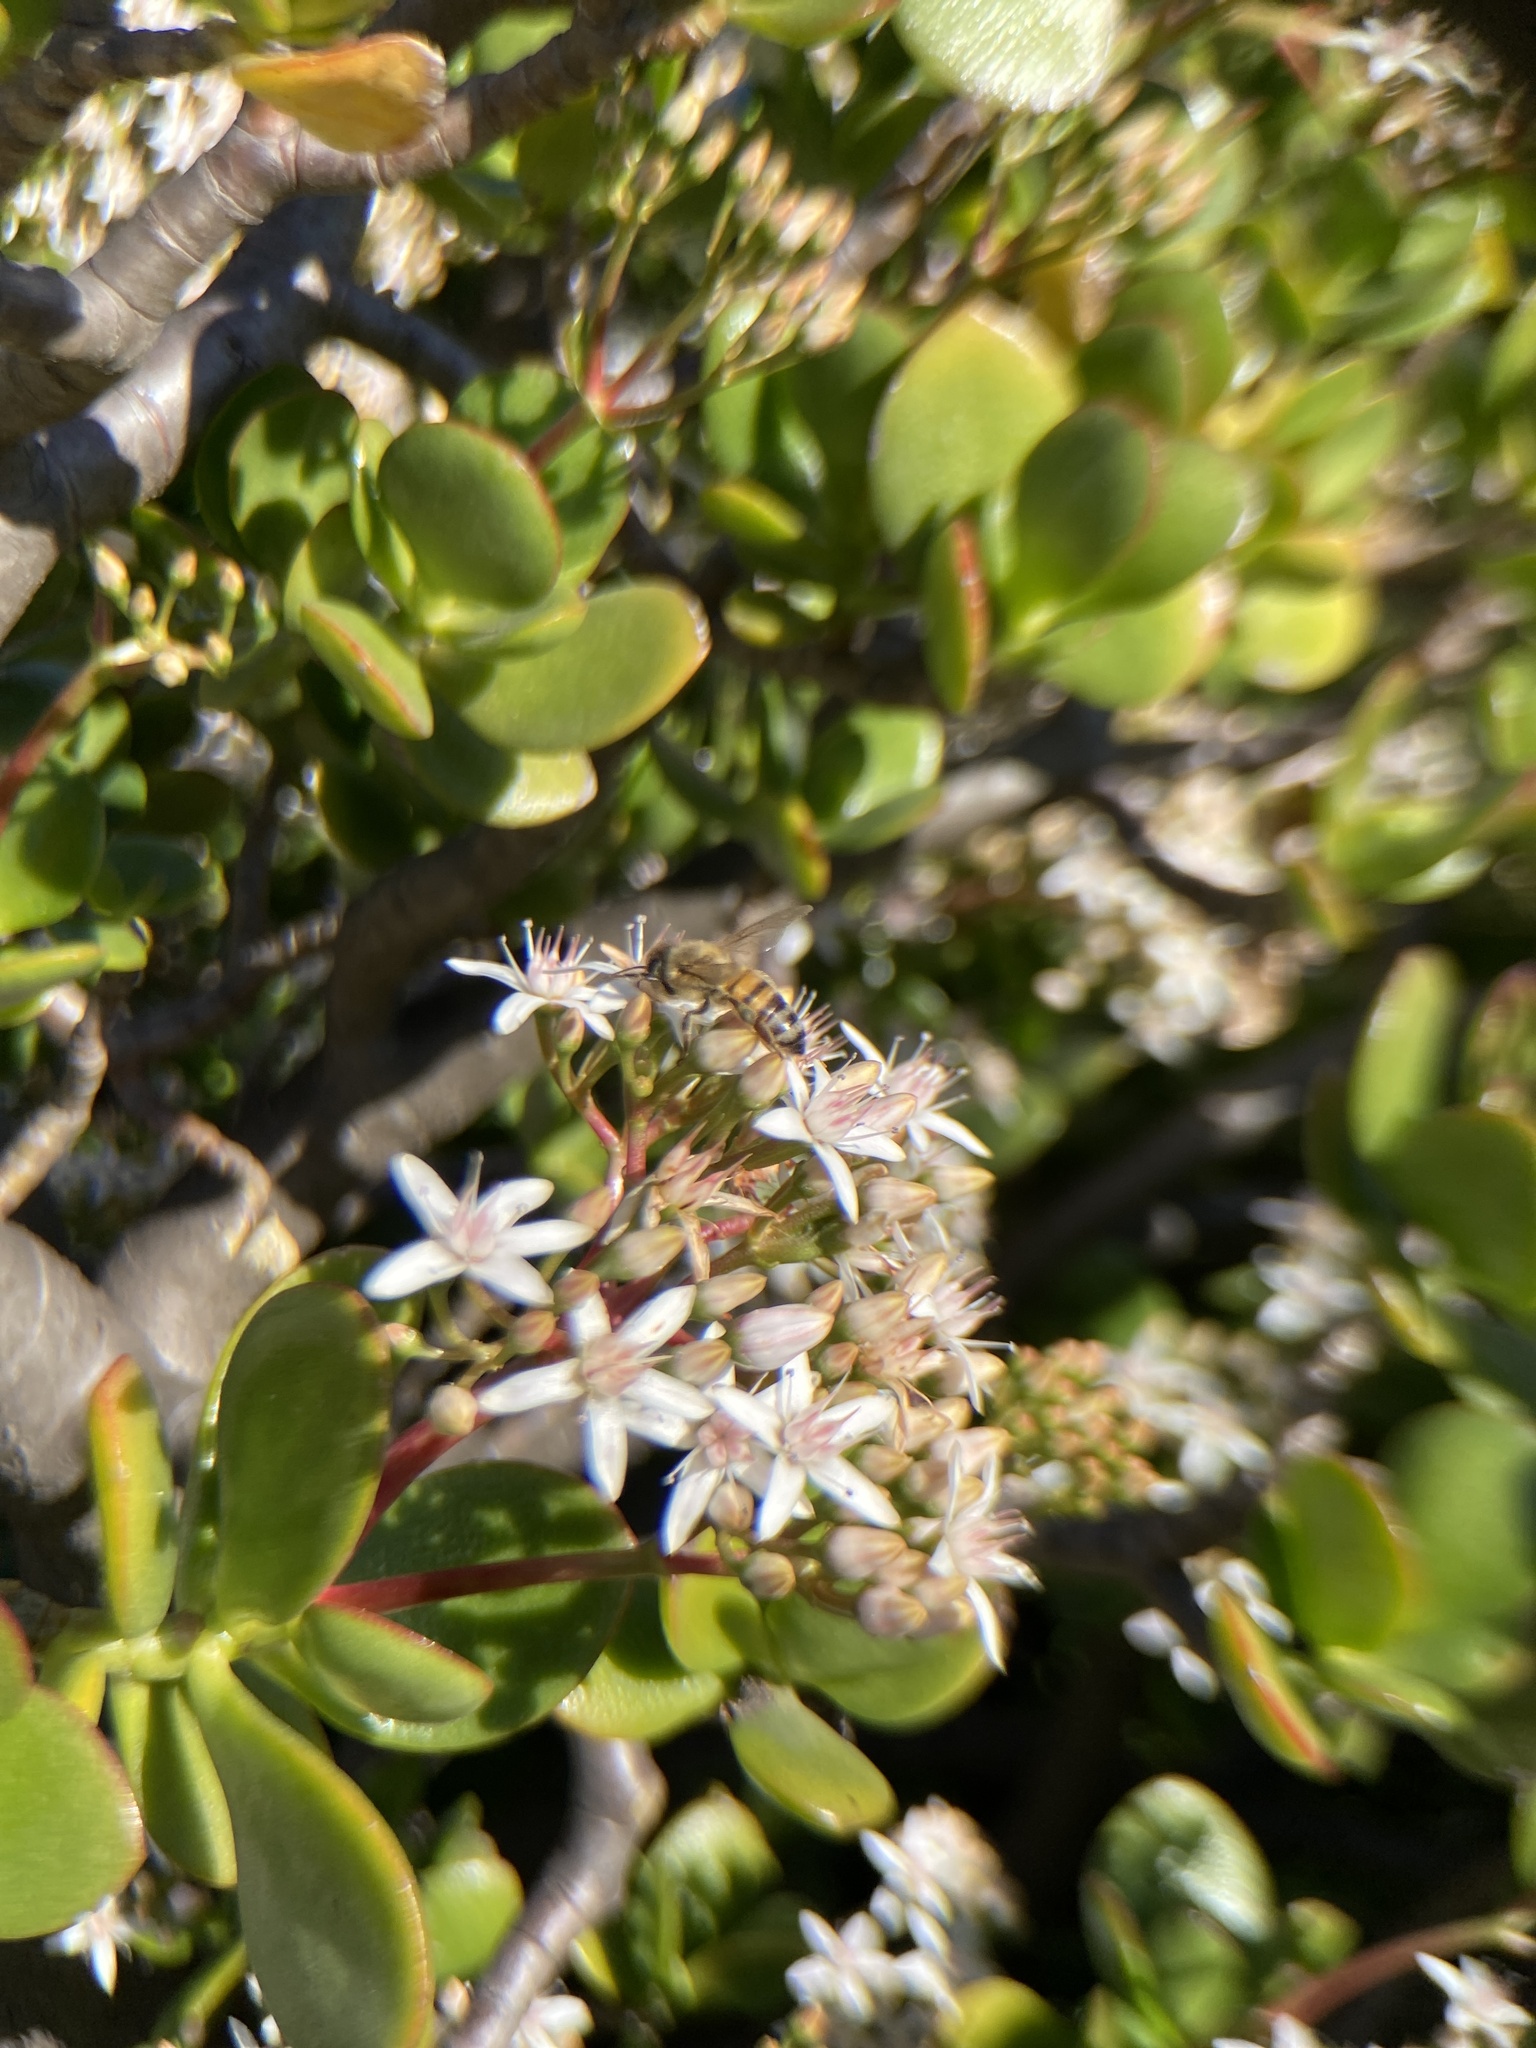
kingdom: Animalia
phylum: Arthropoda
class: Insecta
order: Hymenoptera
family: Apidae
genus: Apis
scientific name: Apis mellifera
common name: Honey bee
